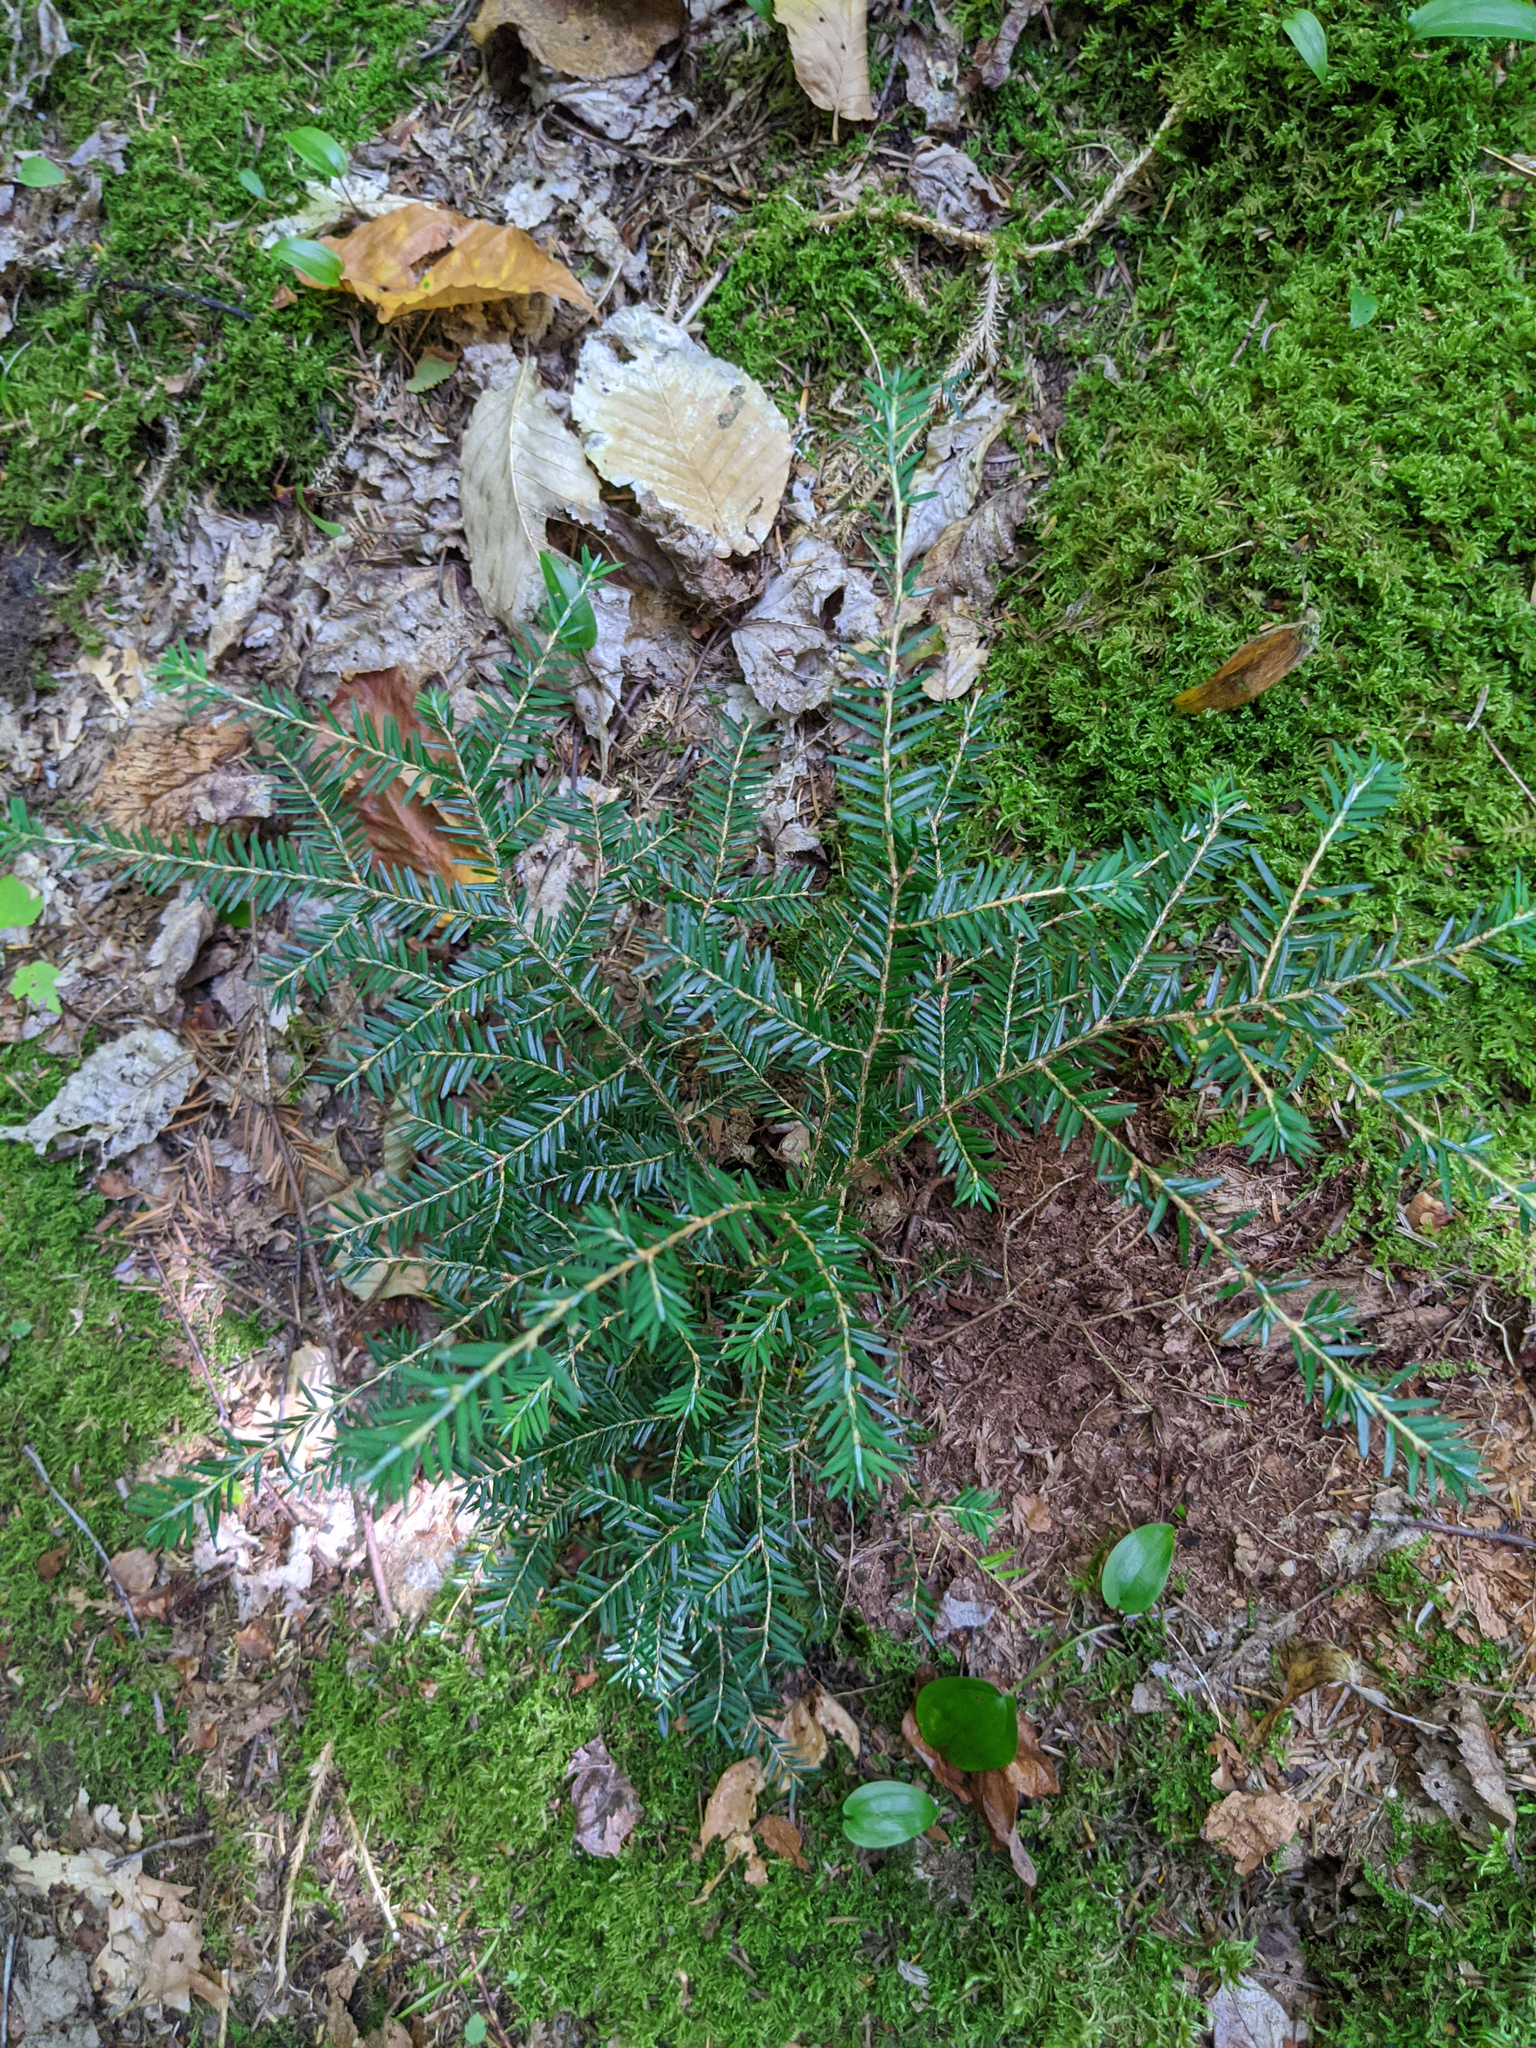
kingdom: Plantae
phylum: Tracheophyta
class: Pinopsida
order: Pinales
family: Pinaceae
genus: Tsuga
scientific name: Tsuga canadensis
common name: Eastern hemlock
